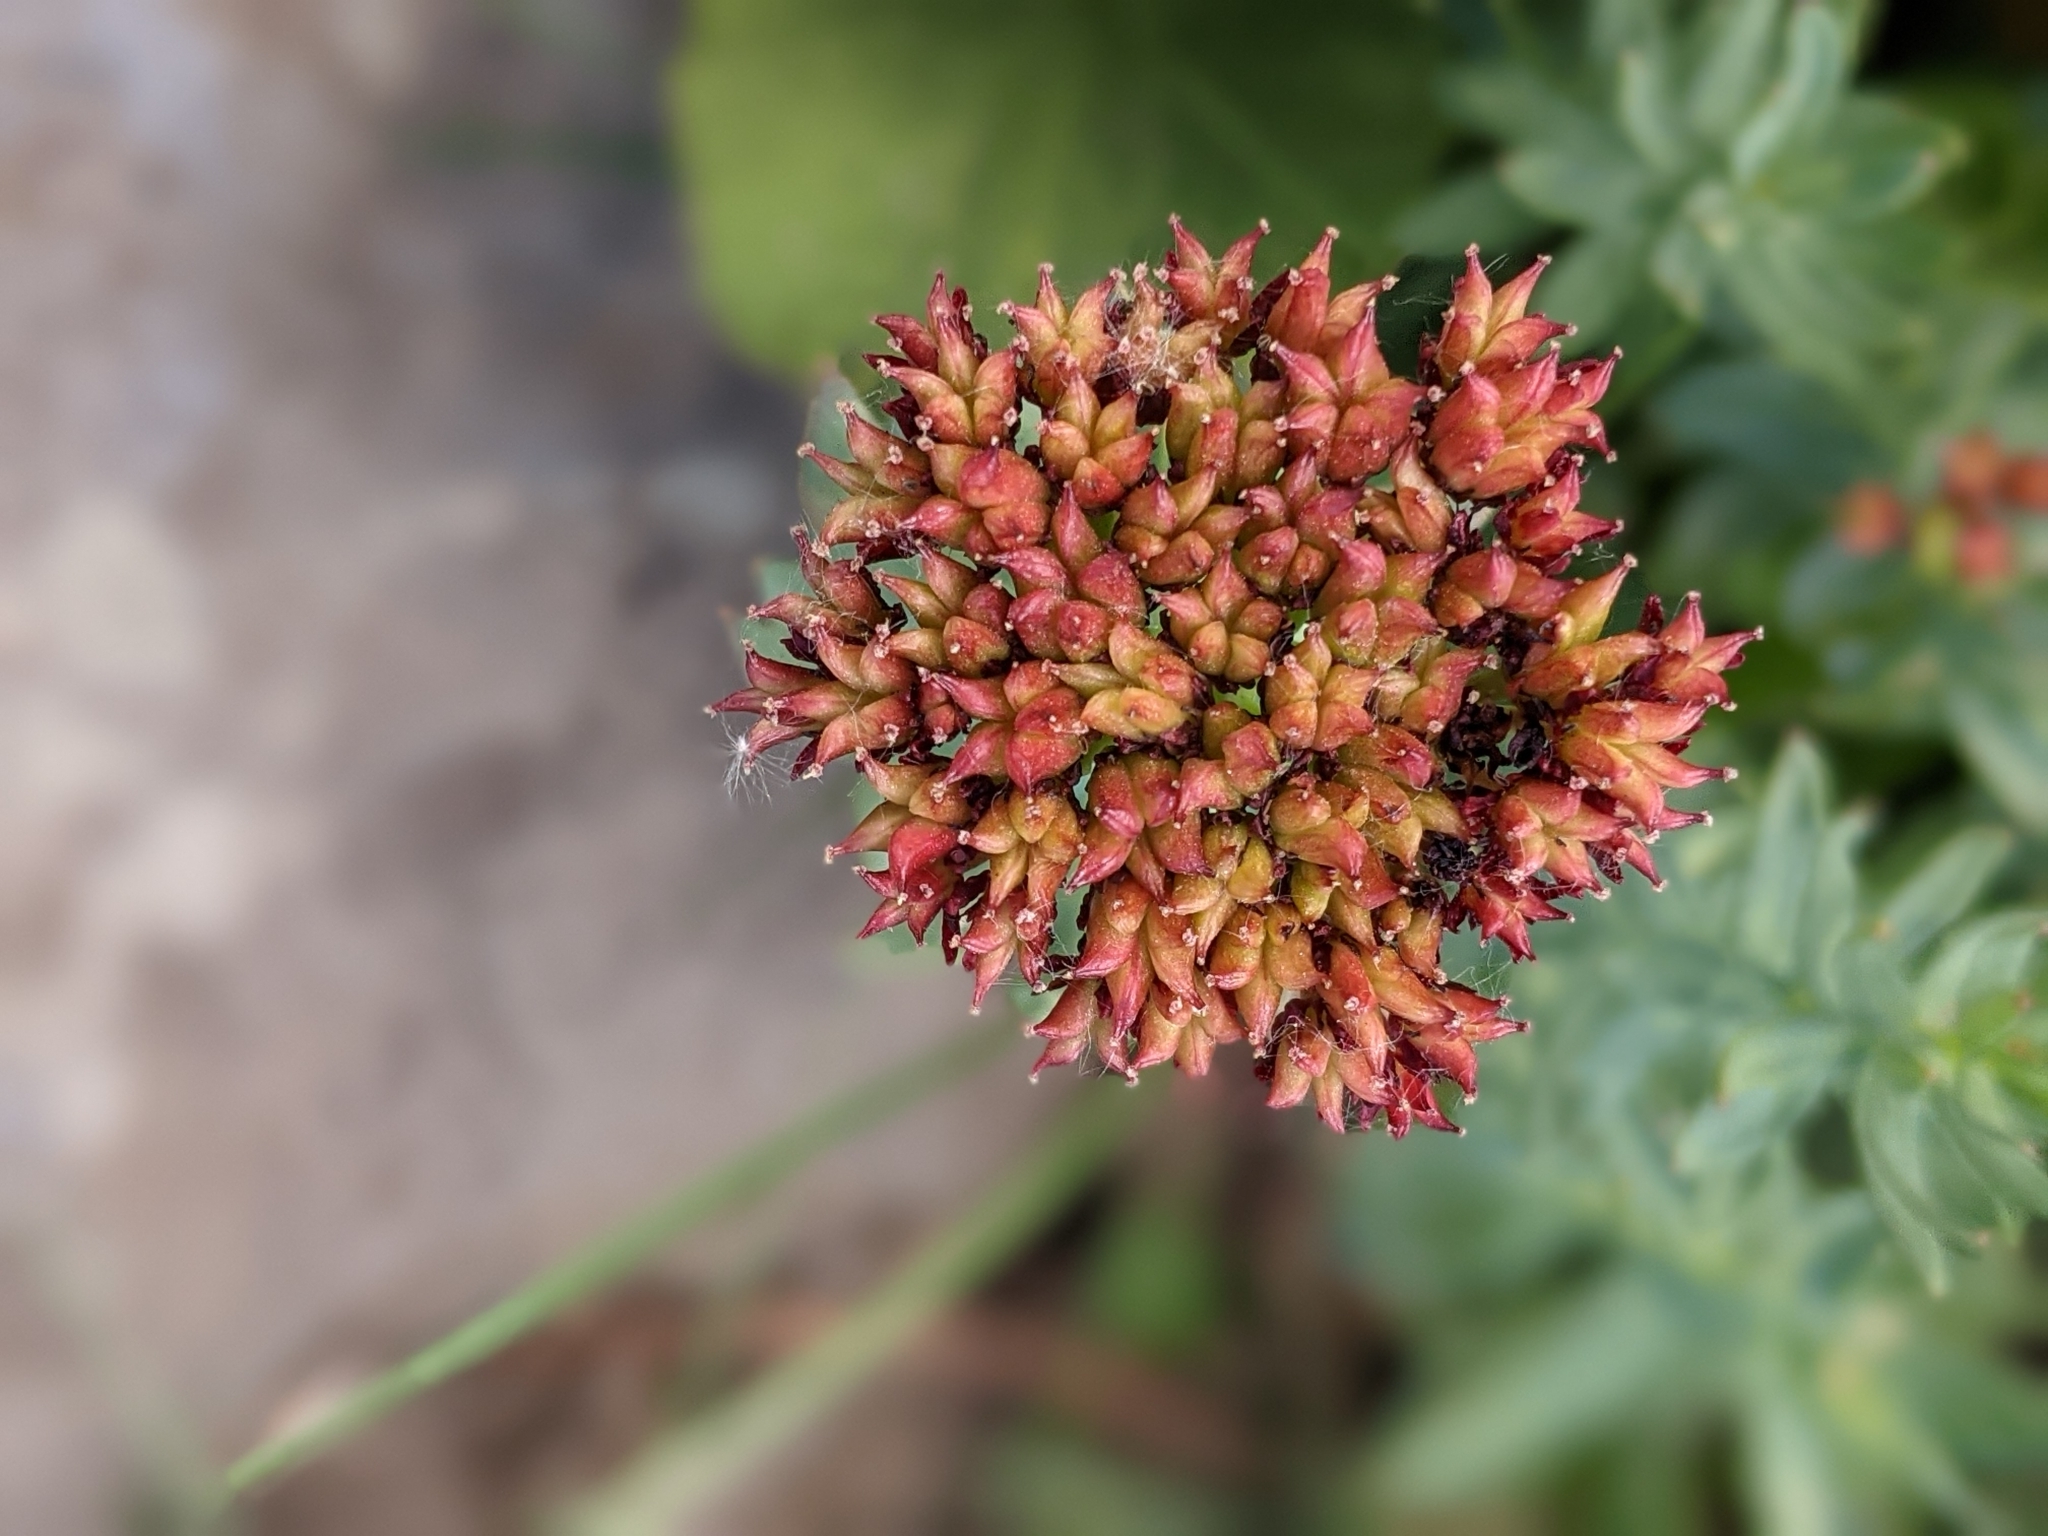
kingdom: Plantae
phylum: Tracheophyta
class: Magnoliopsida
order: Saxifragales
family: Crassulaceae
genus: Rhodiola
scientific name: Rhodiola integrifolia
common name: Western roseroot
